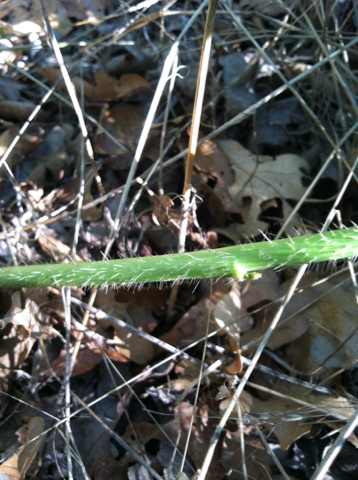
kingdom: Plantae
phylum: Tracheophyta
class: Magnoliopsida
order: Malpighiales
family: Euphorbiaceae
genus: Cnidoscolus
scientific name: Cnidoscolus texanus
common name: Texas bull-nettle
